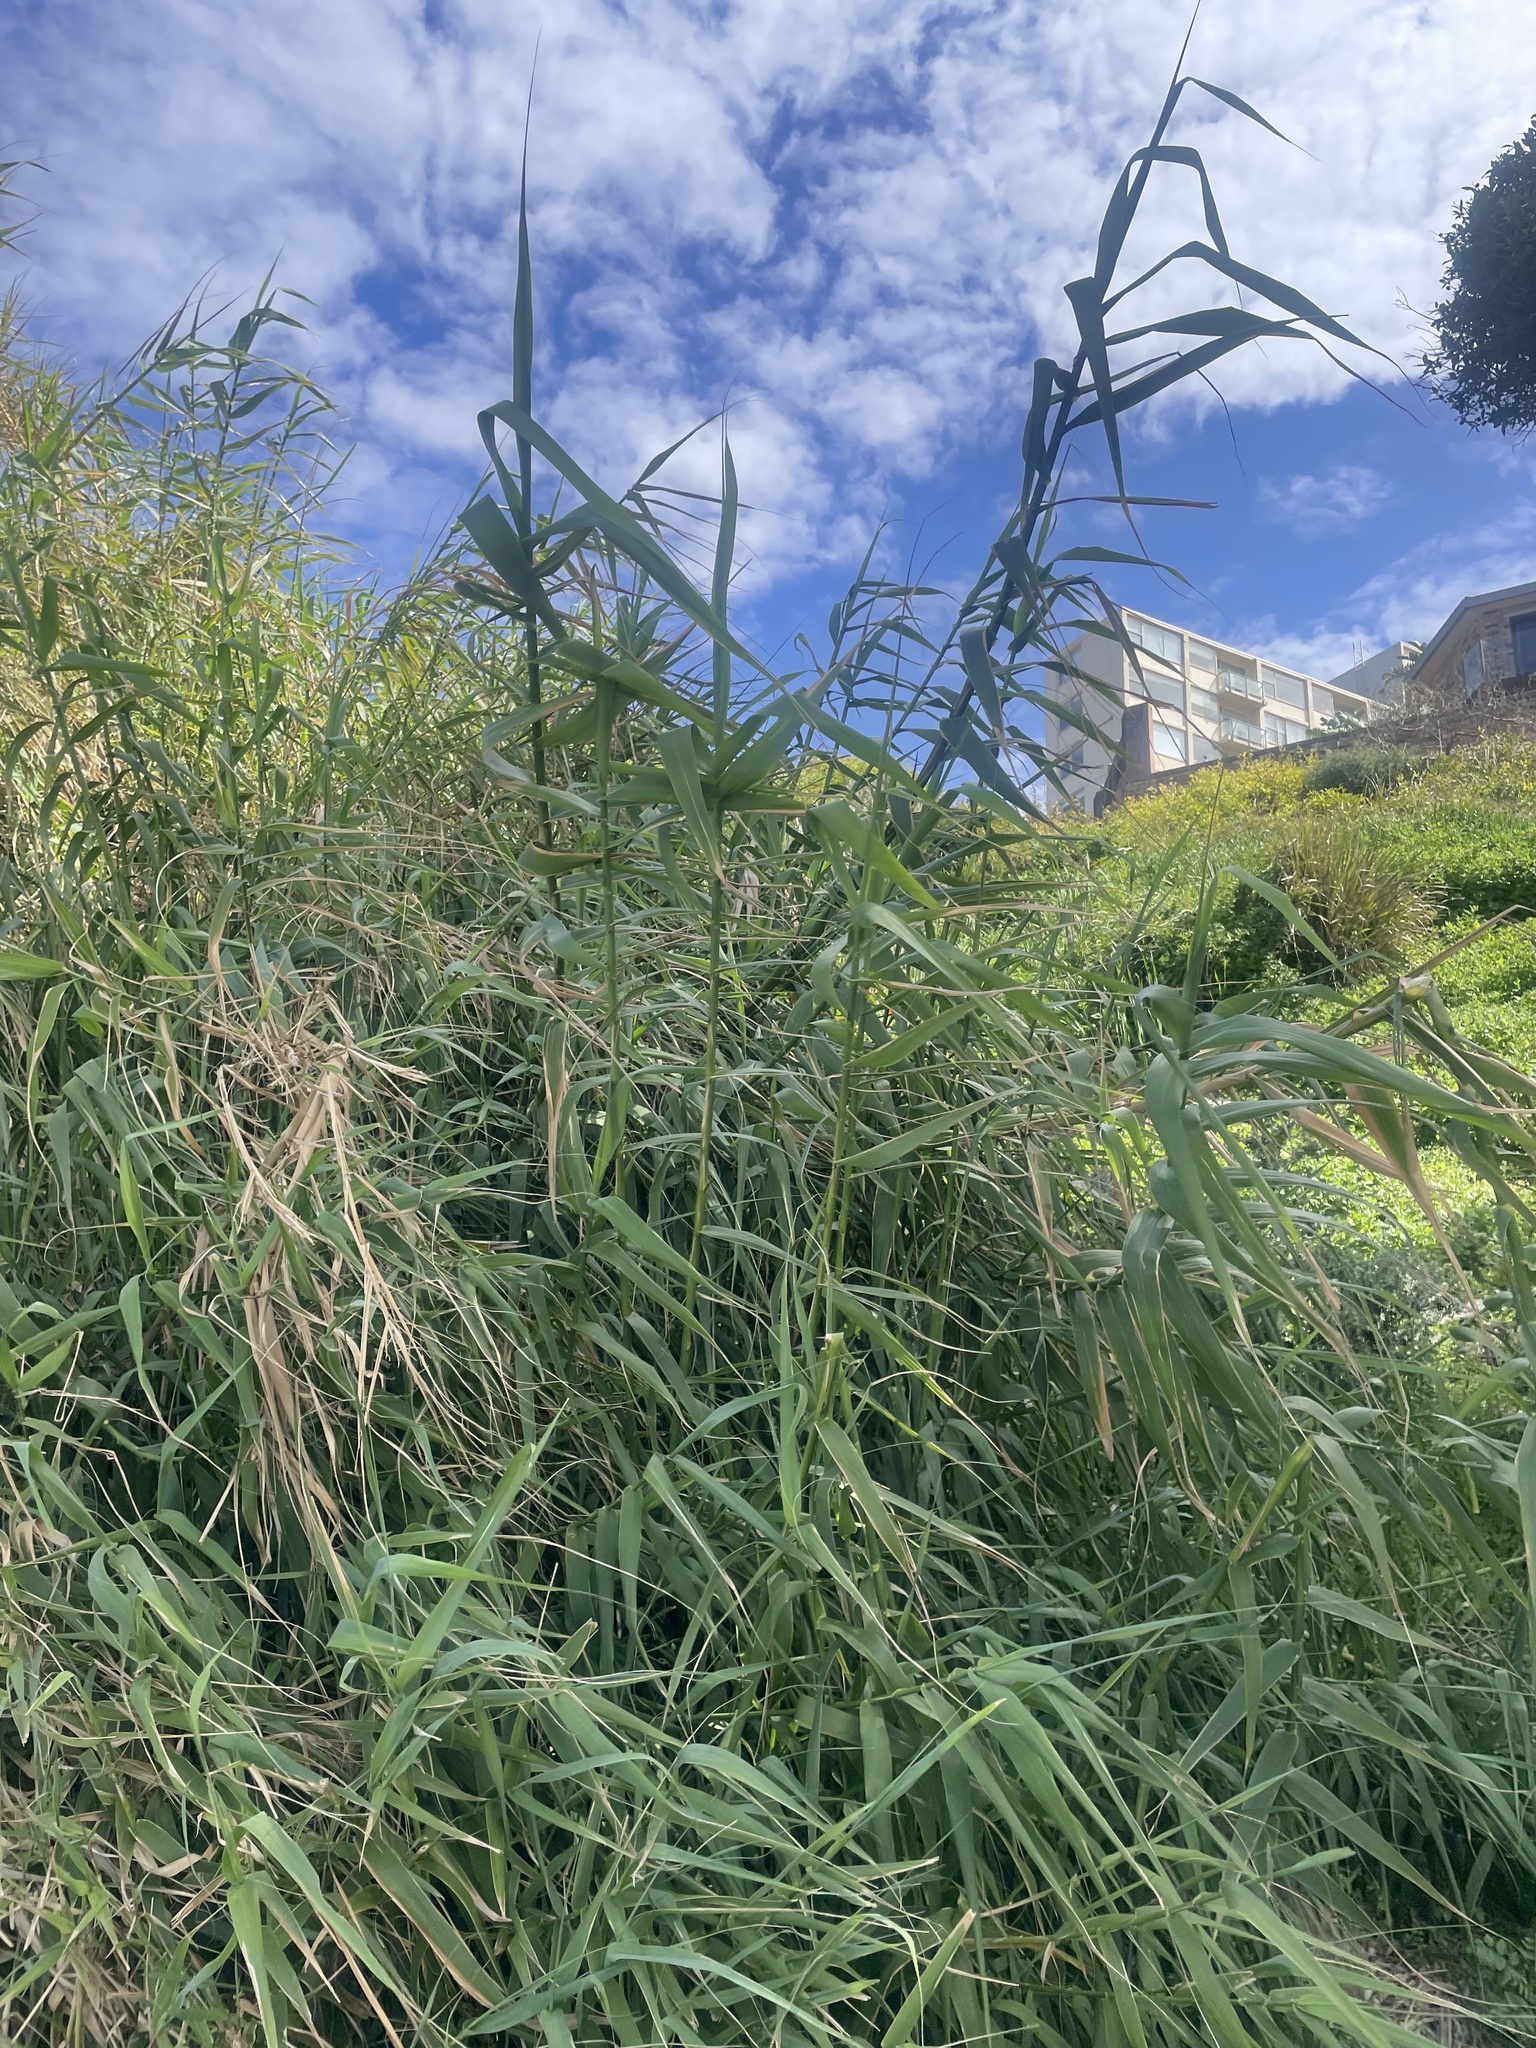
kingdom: Plantae
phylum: Tracheophyta
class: Liliopsida
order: Poales
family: Poaceae
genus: Phragmites
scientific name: Phragmites australis
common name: Common reed
